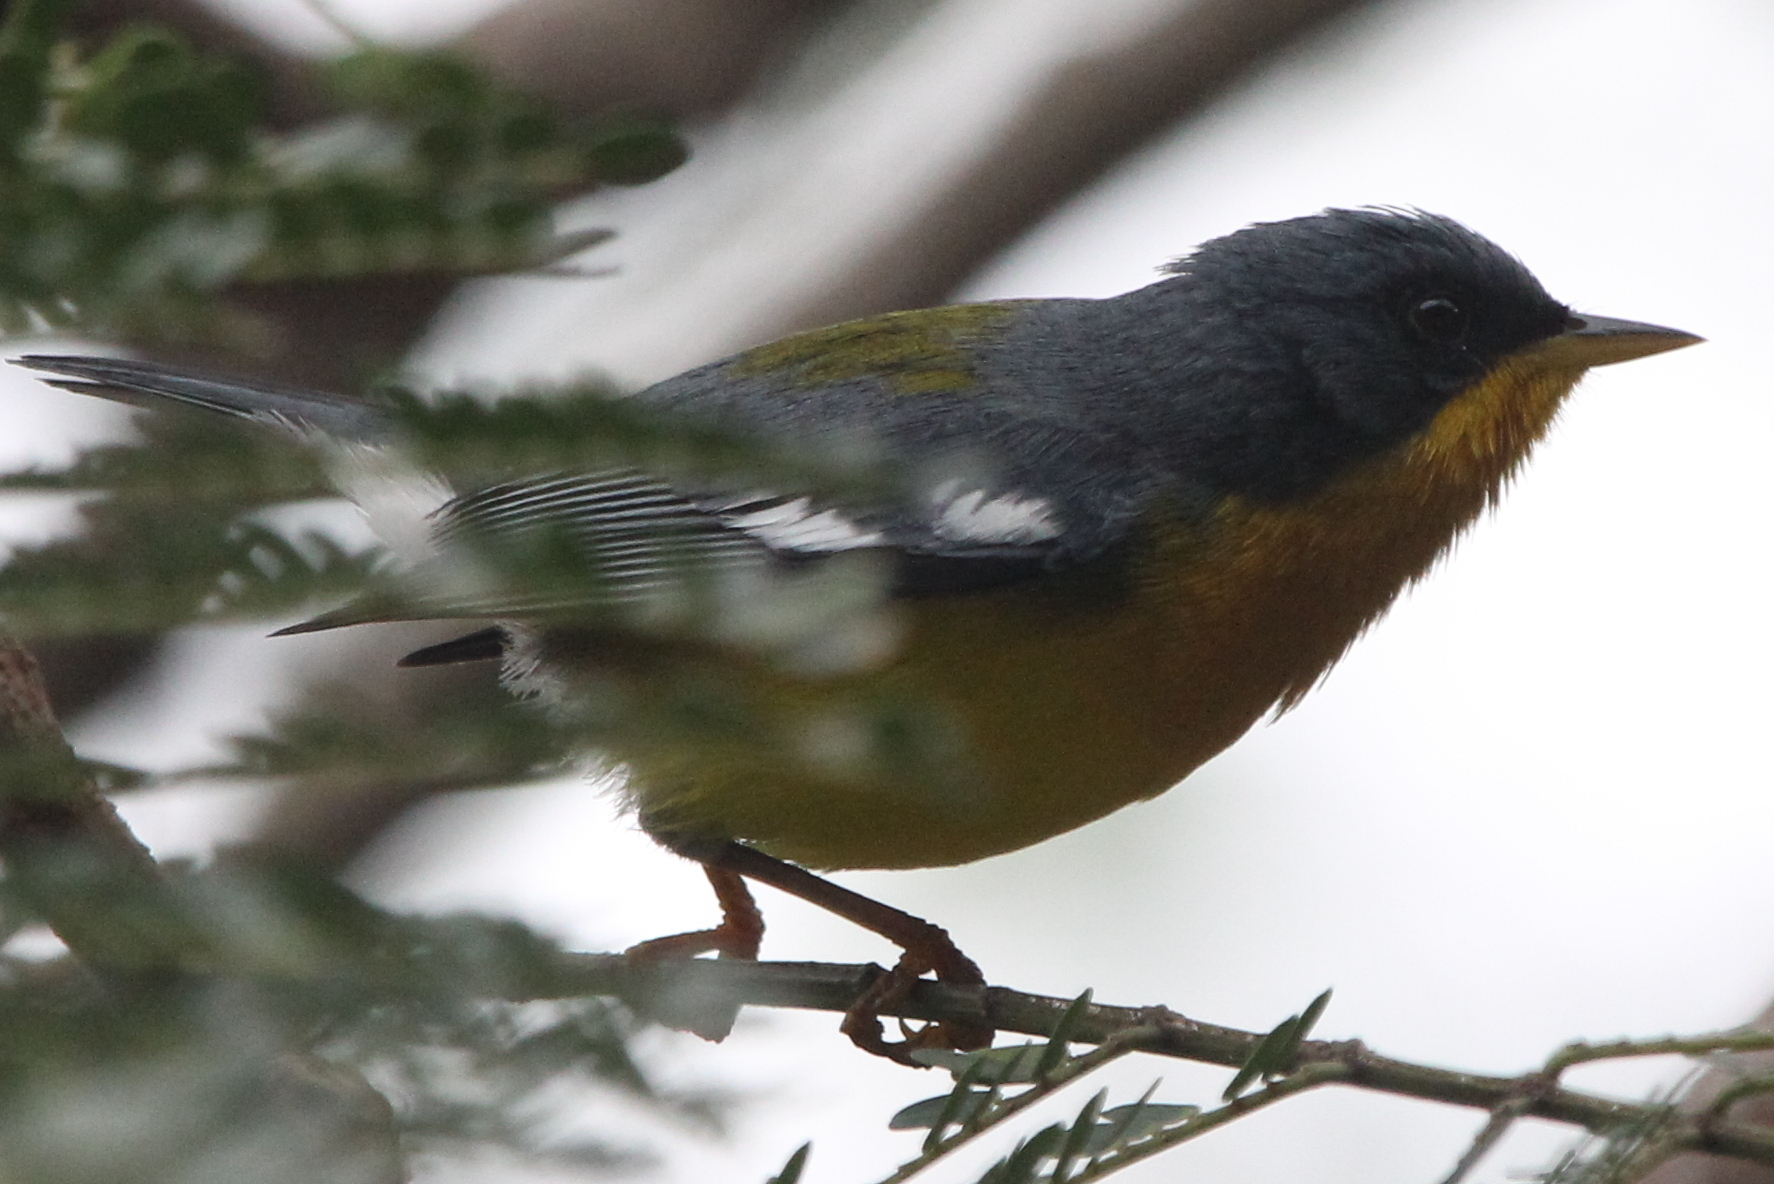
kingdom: Animalia
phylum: Chordata
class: Aves
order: Passeriformes
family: Parulidae
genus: Setophaga
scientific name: Setophaga pitiayumi
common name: Tropical parula
